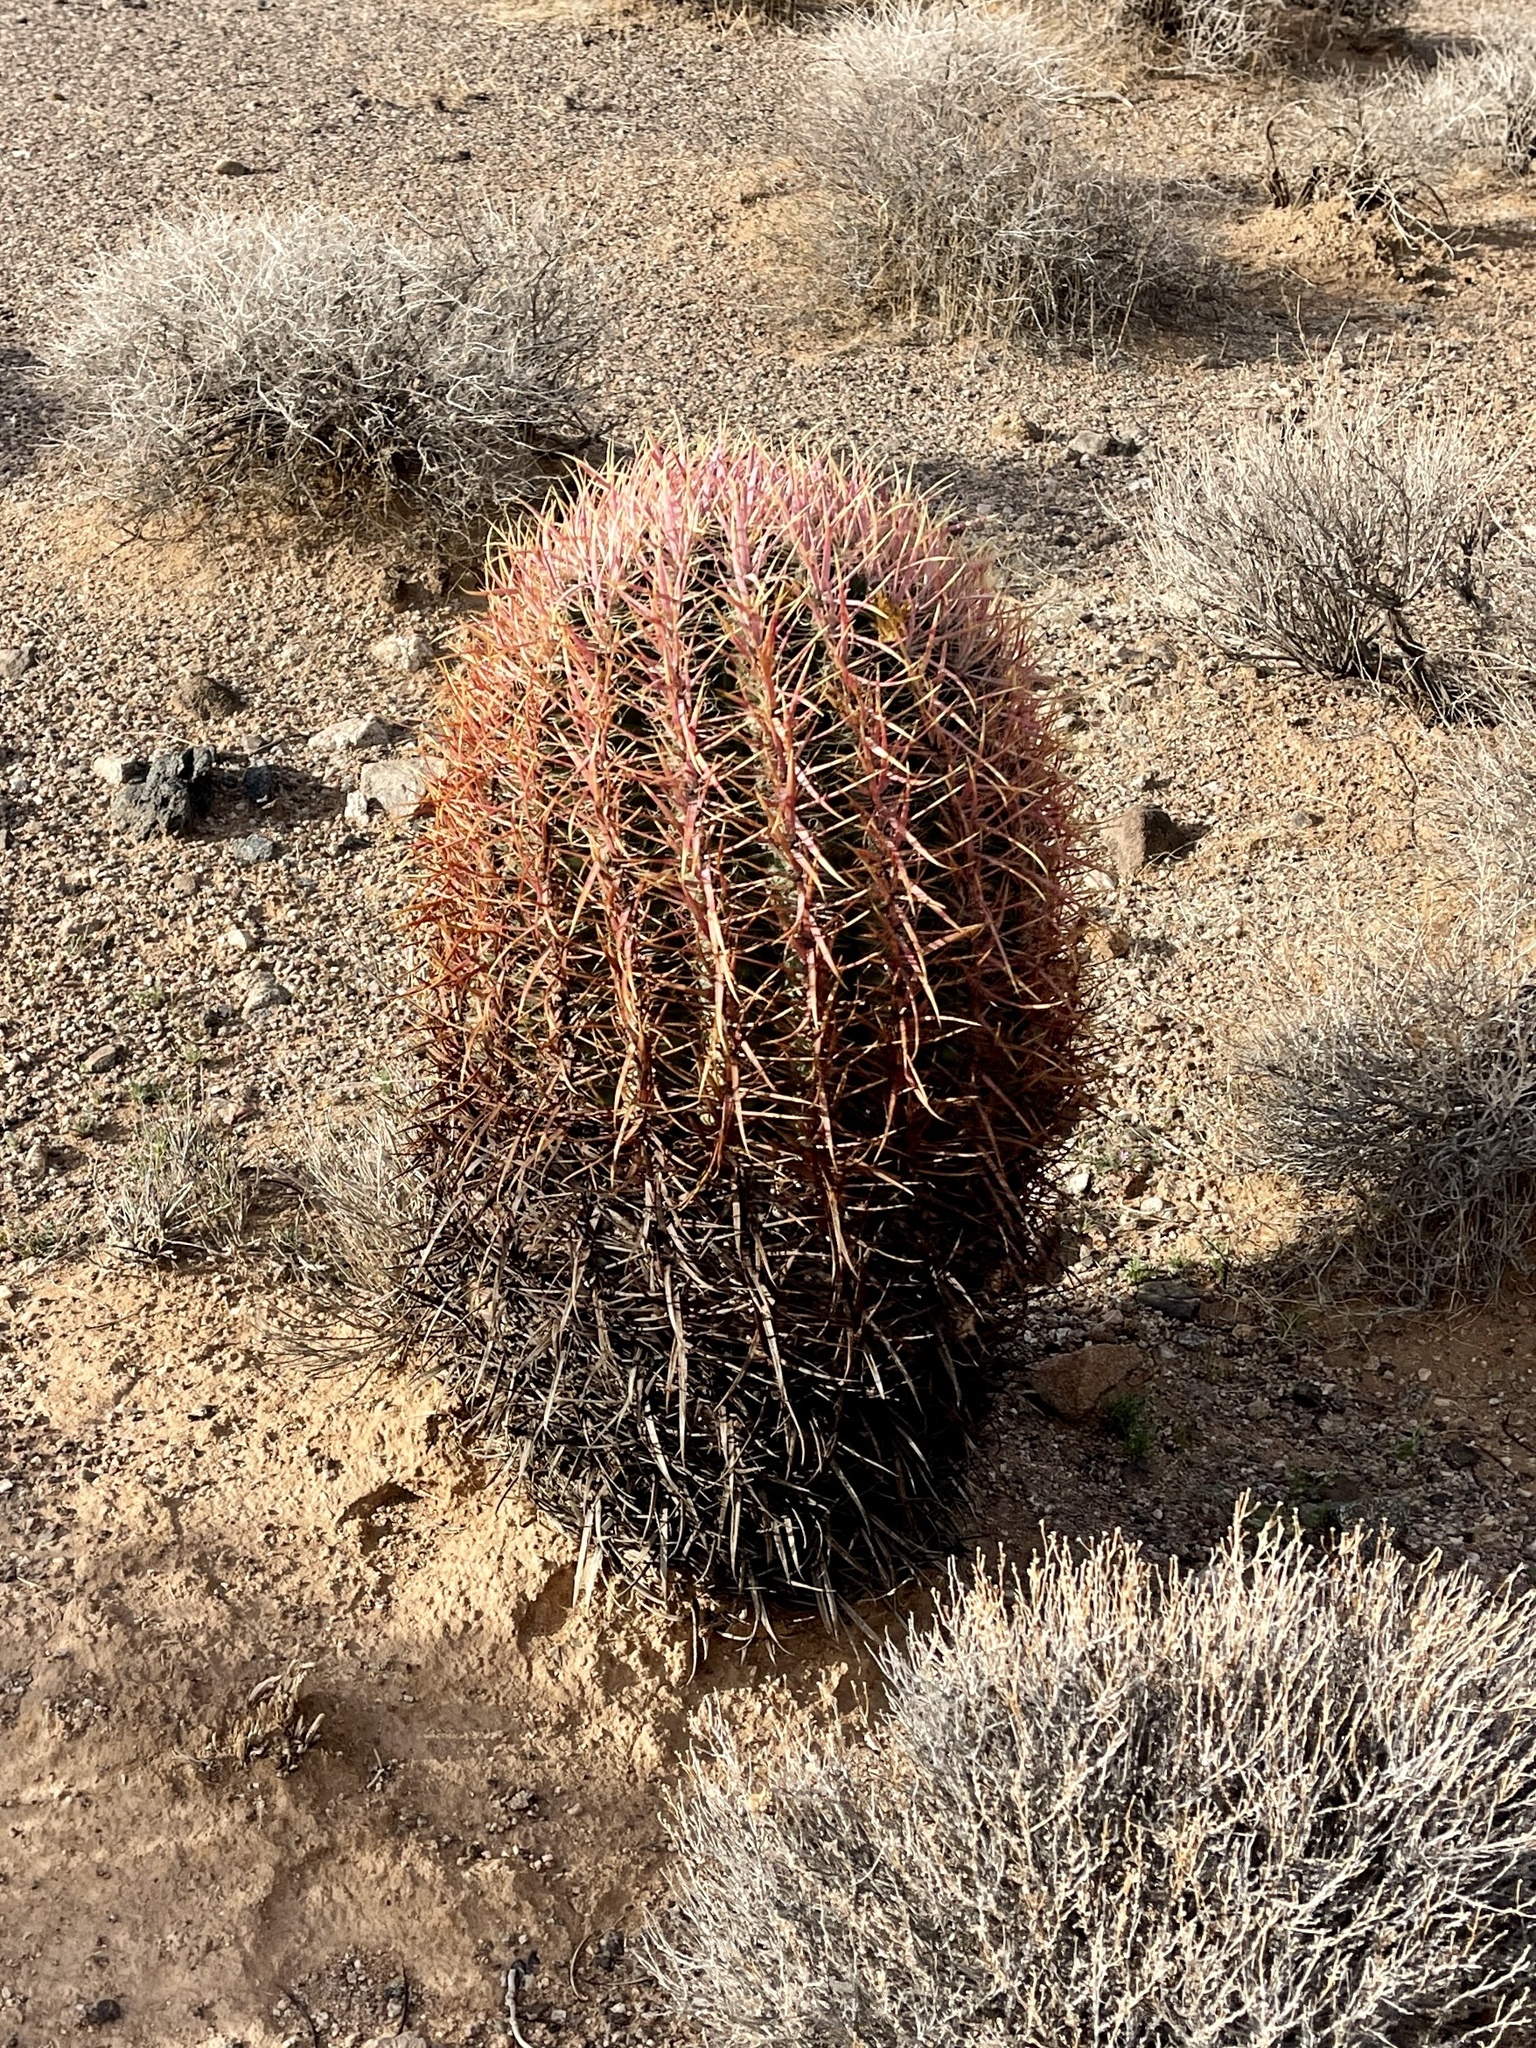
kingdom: Plantae
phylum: Tracheophyta
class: Magnoliopsida
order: Caryophyllales
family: Cactaceae
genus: Ferocactus
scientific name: Ferocactus cylindraceus
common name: California barrel cactus
